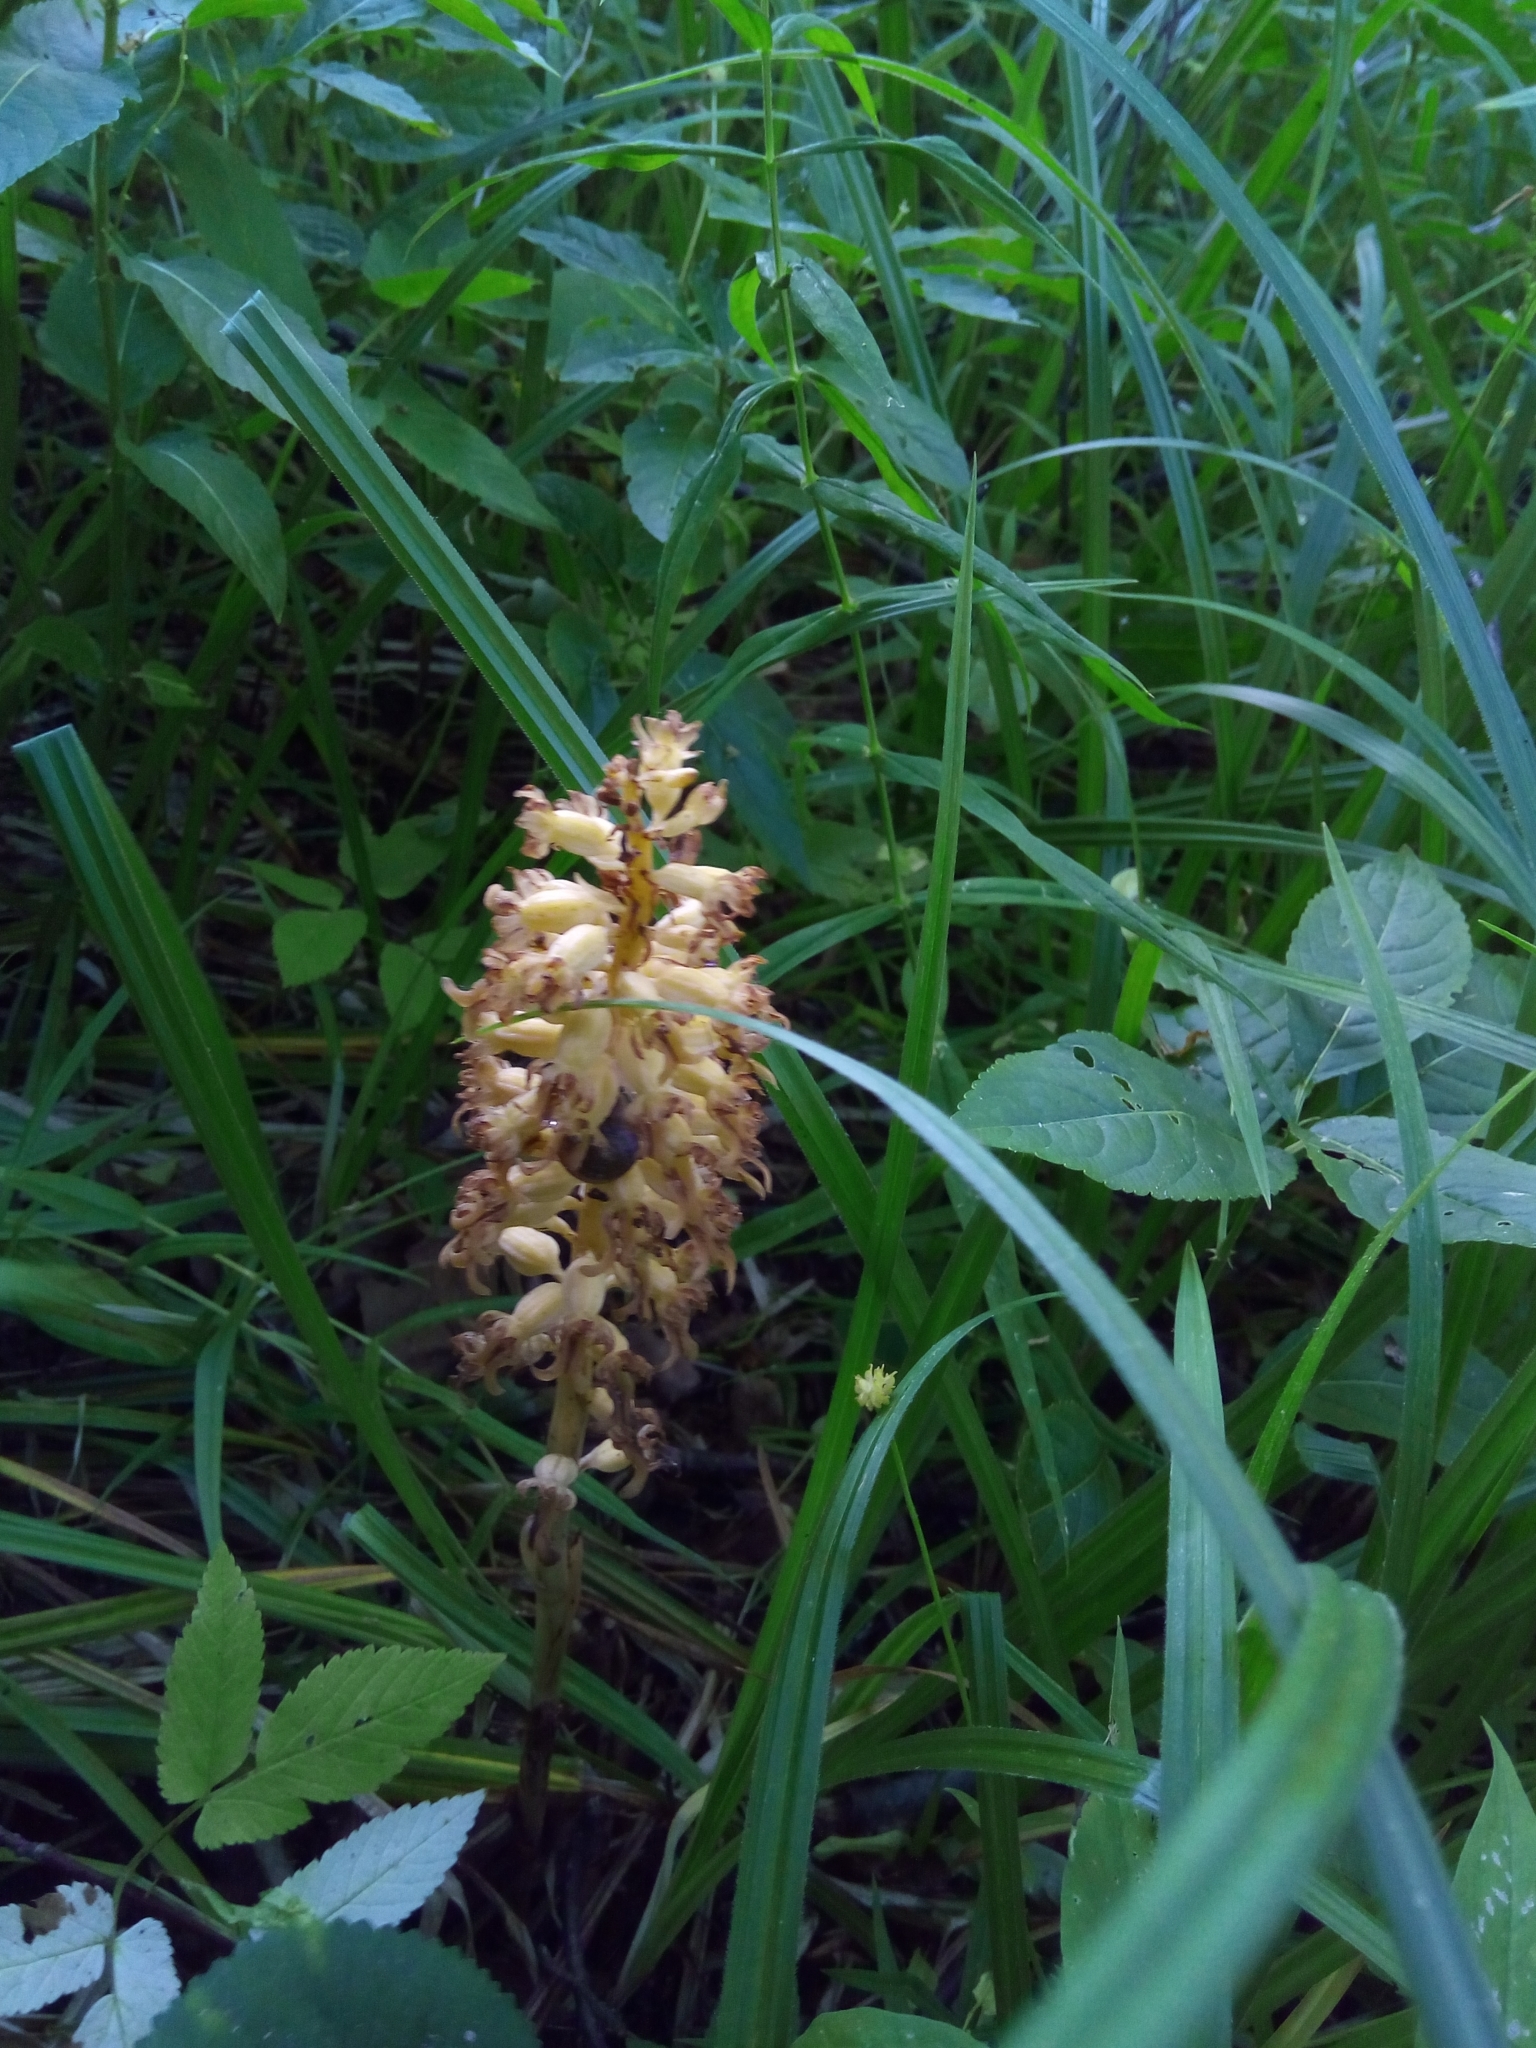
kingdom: Plantae
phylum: Tracheophyta
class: Liliopsida
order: Asparagales
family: Orchidaceae
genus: Neottia
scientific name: Neottia nidus-avis
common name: Bird's-nest orchid
